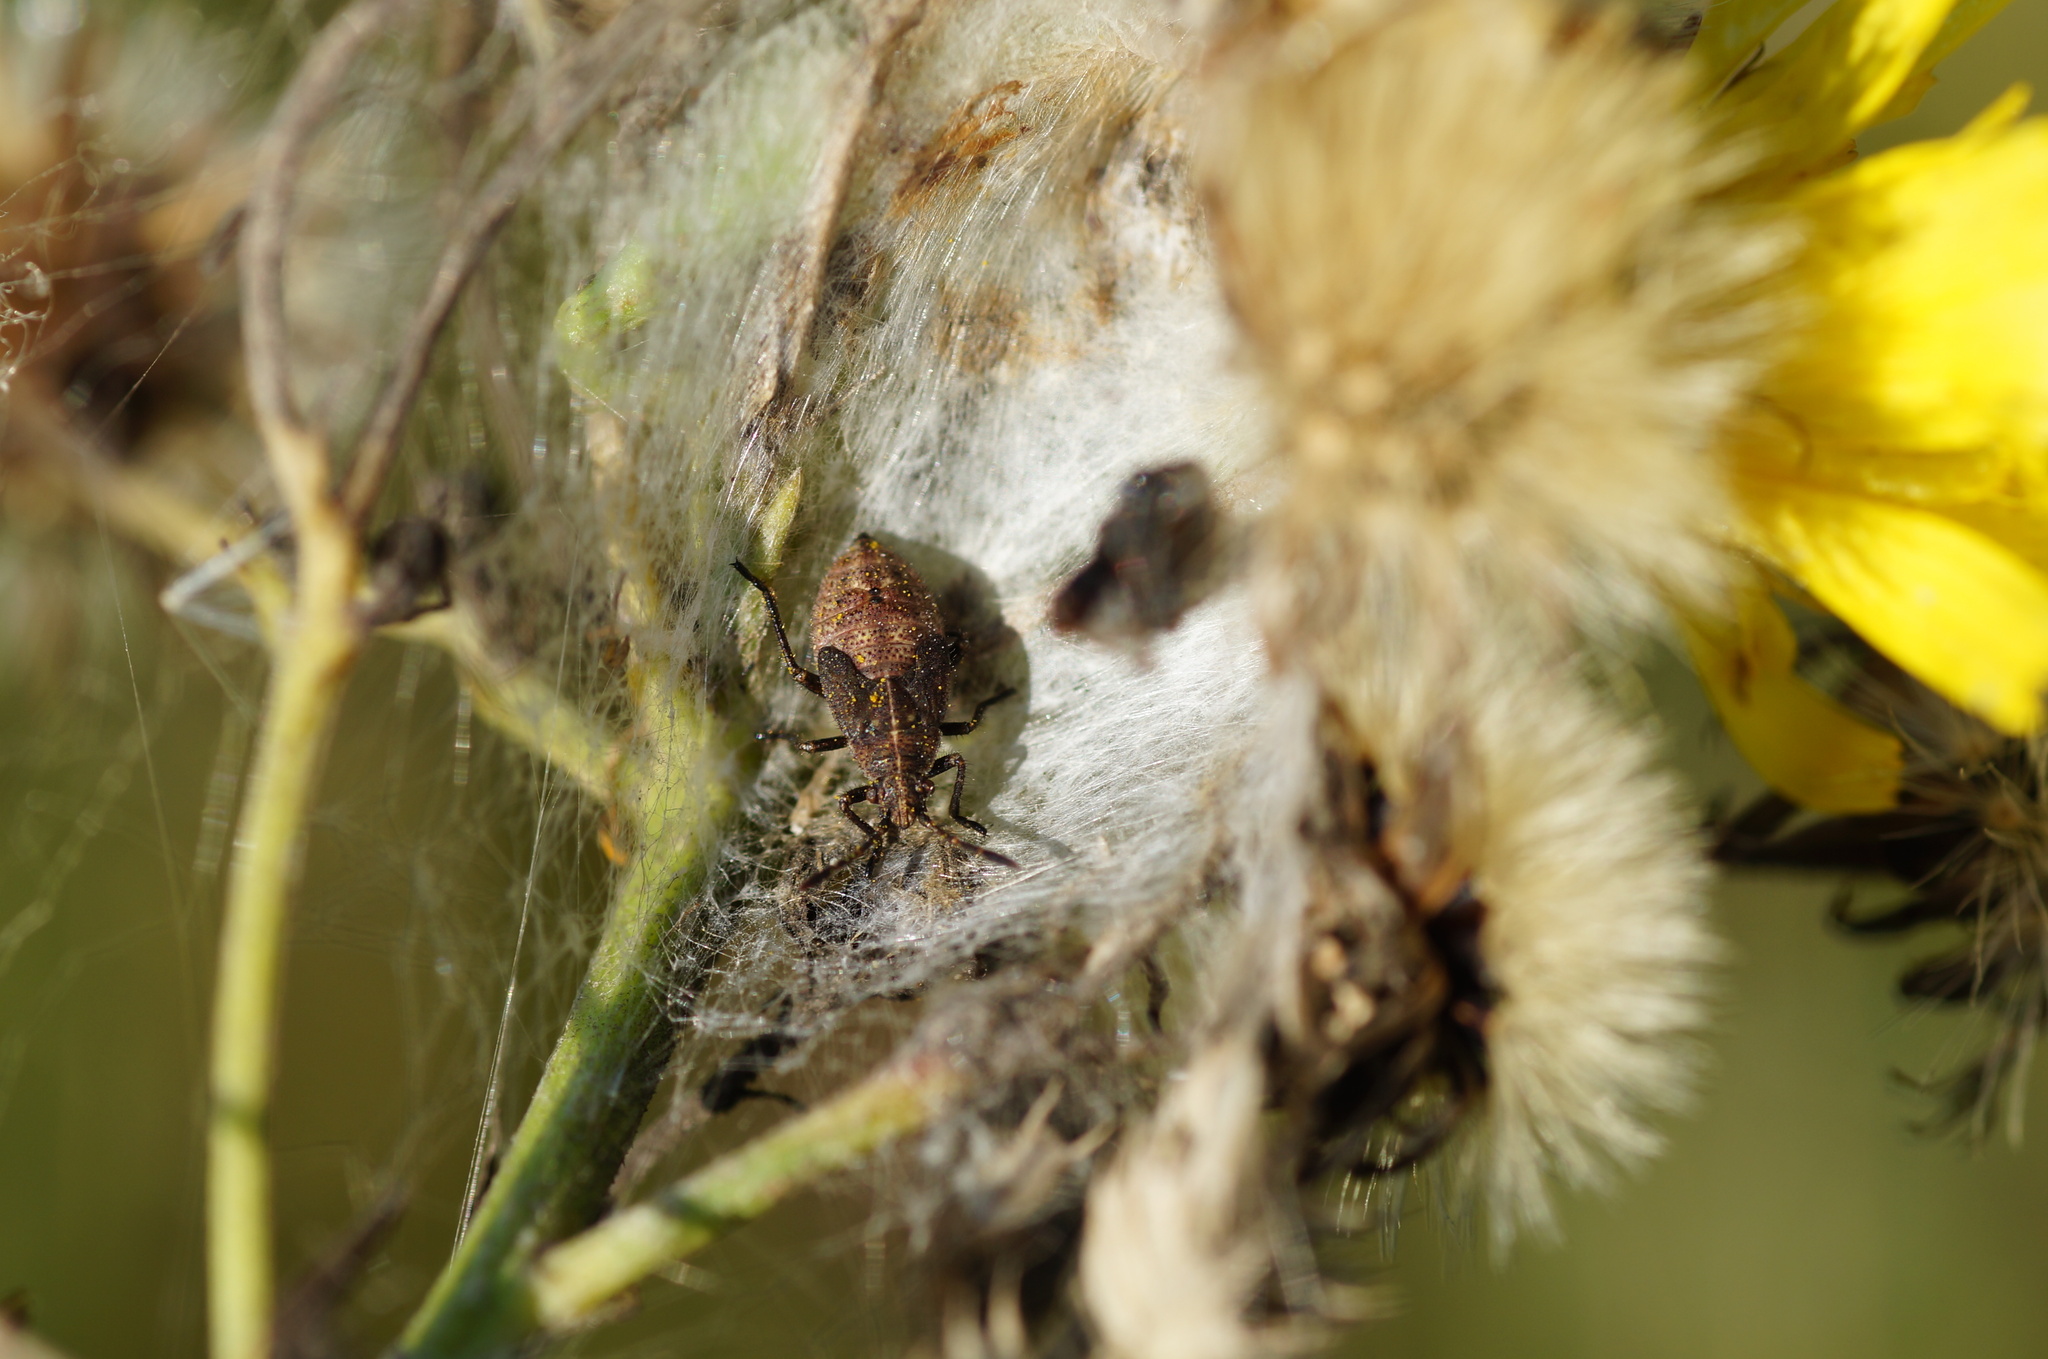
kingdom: Animalia
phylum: Arthropoda
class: Insecta
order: Hemiptera
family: Rhopalidae
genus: Stictopleurus
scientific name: Stictopleurus
